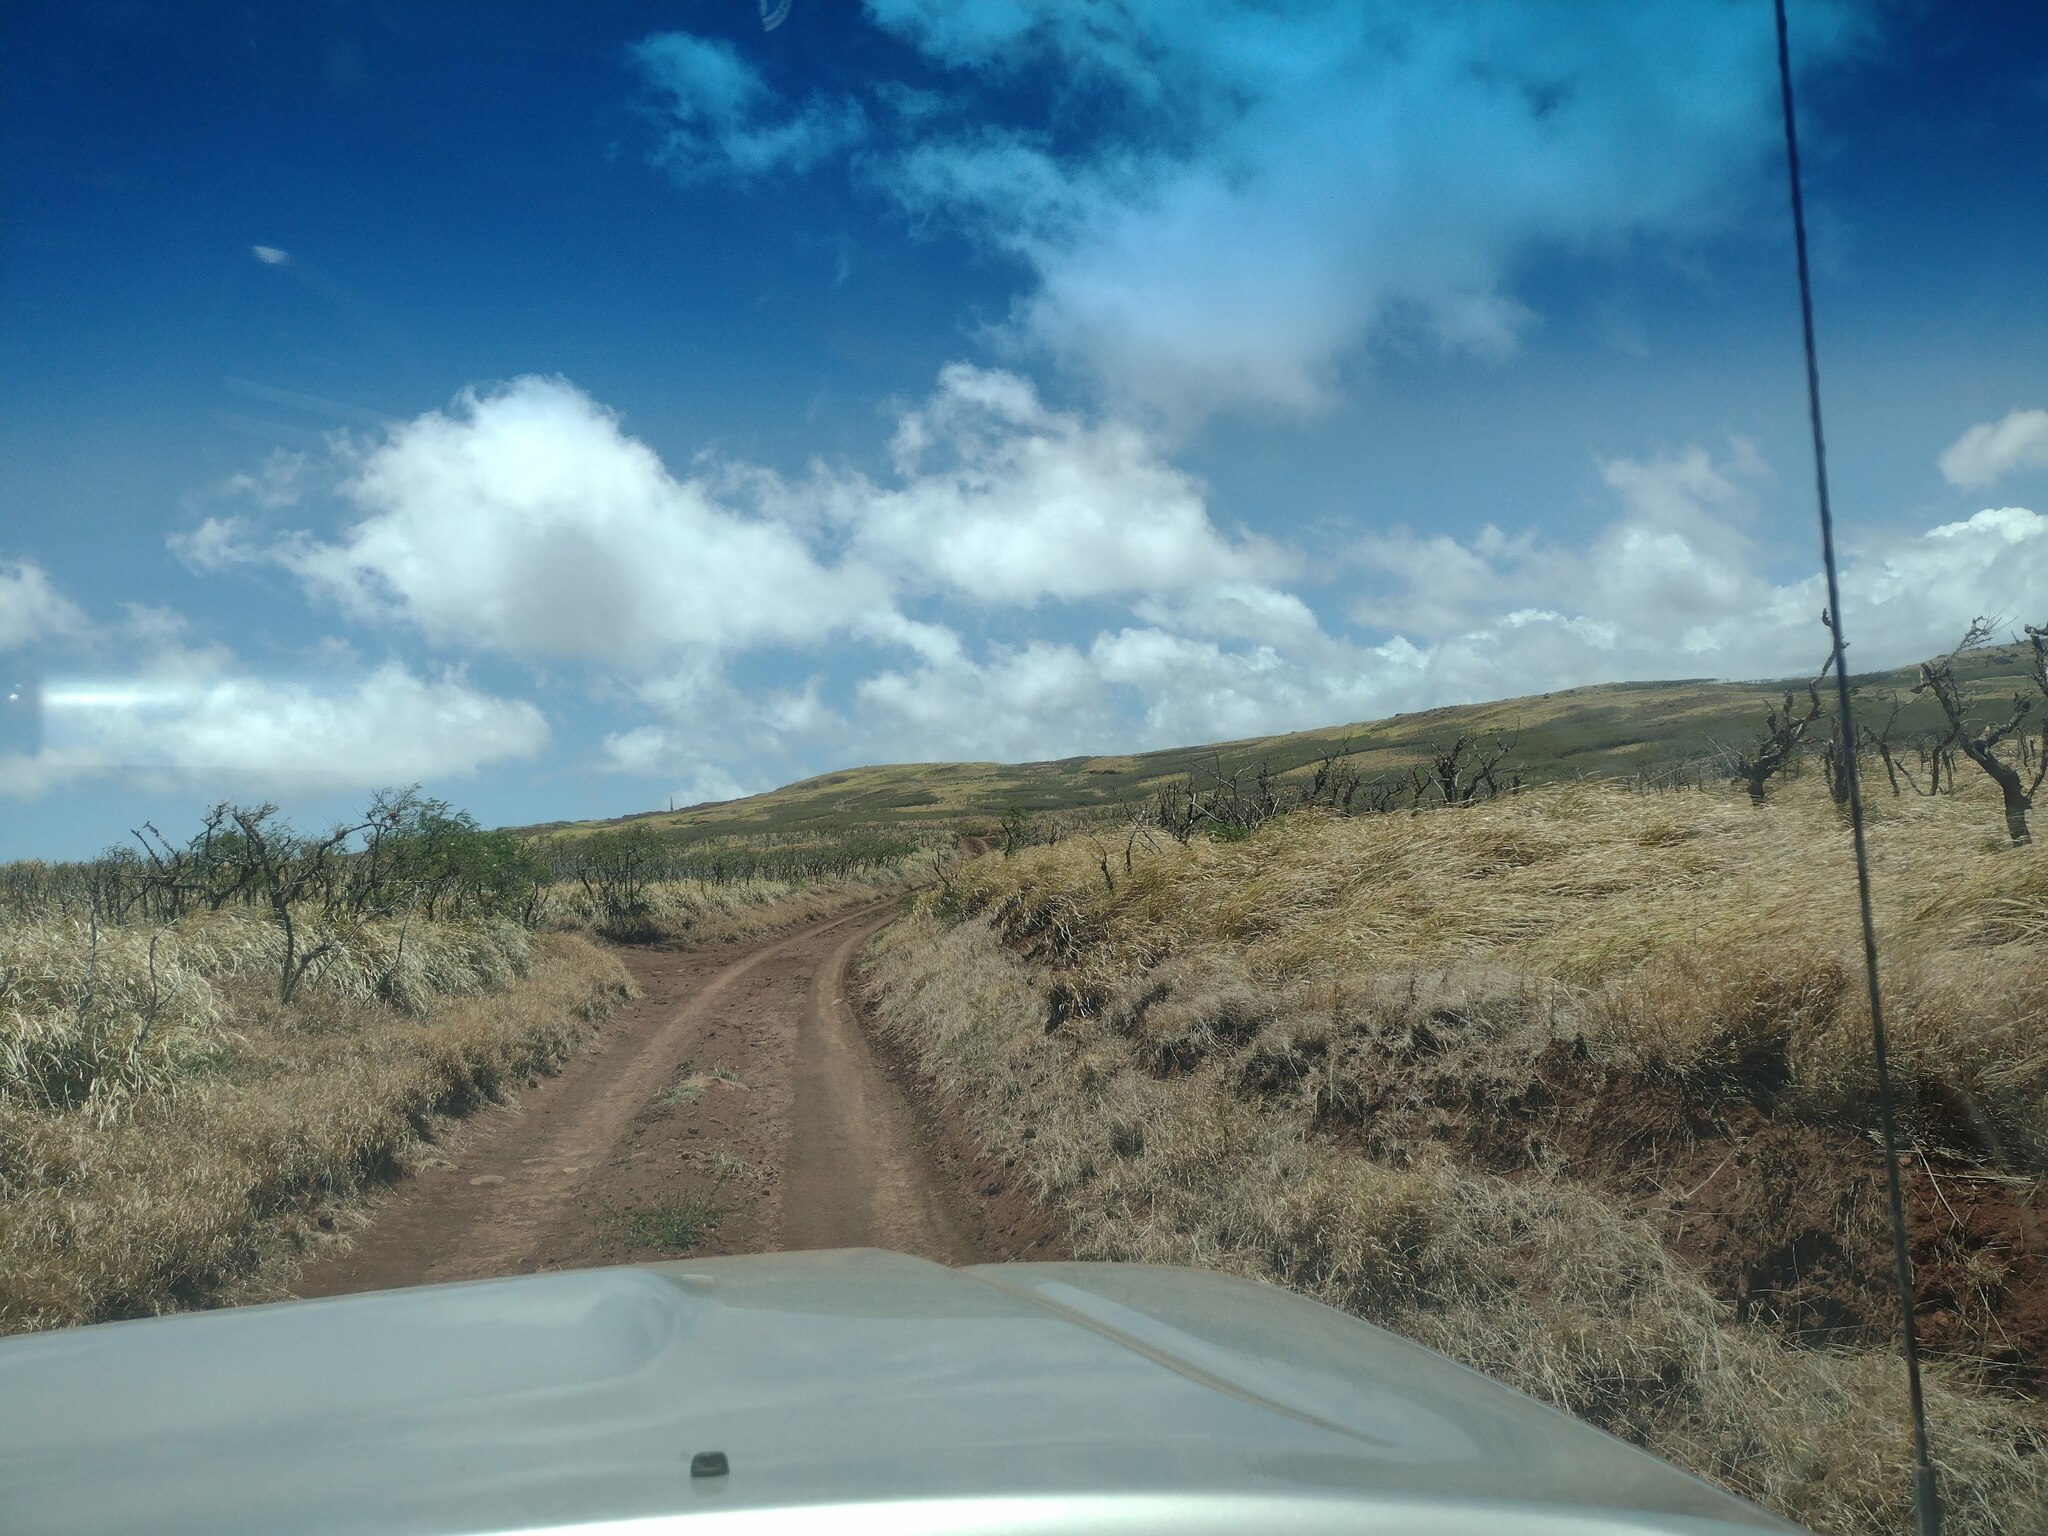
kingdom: Plantae
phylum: Tracheophyta
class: Liliopsida
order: Poales
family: Poaceae
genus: Megathyrsus
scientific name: Megathyrsus maximus
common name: Guineagrass
